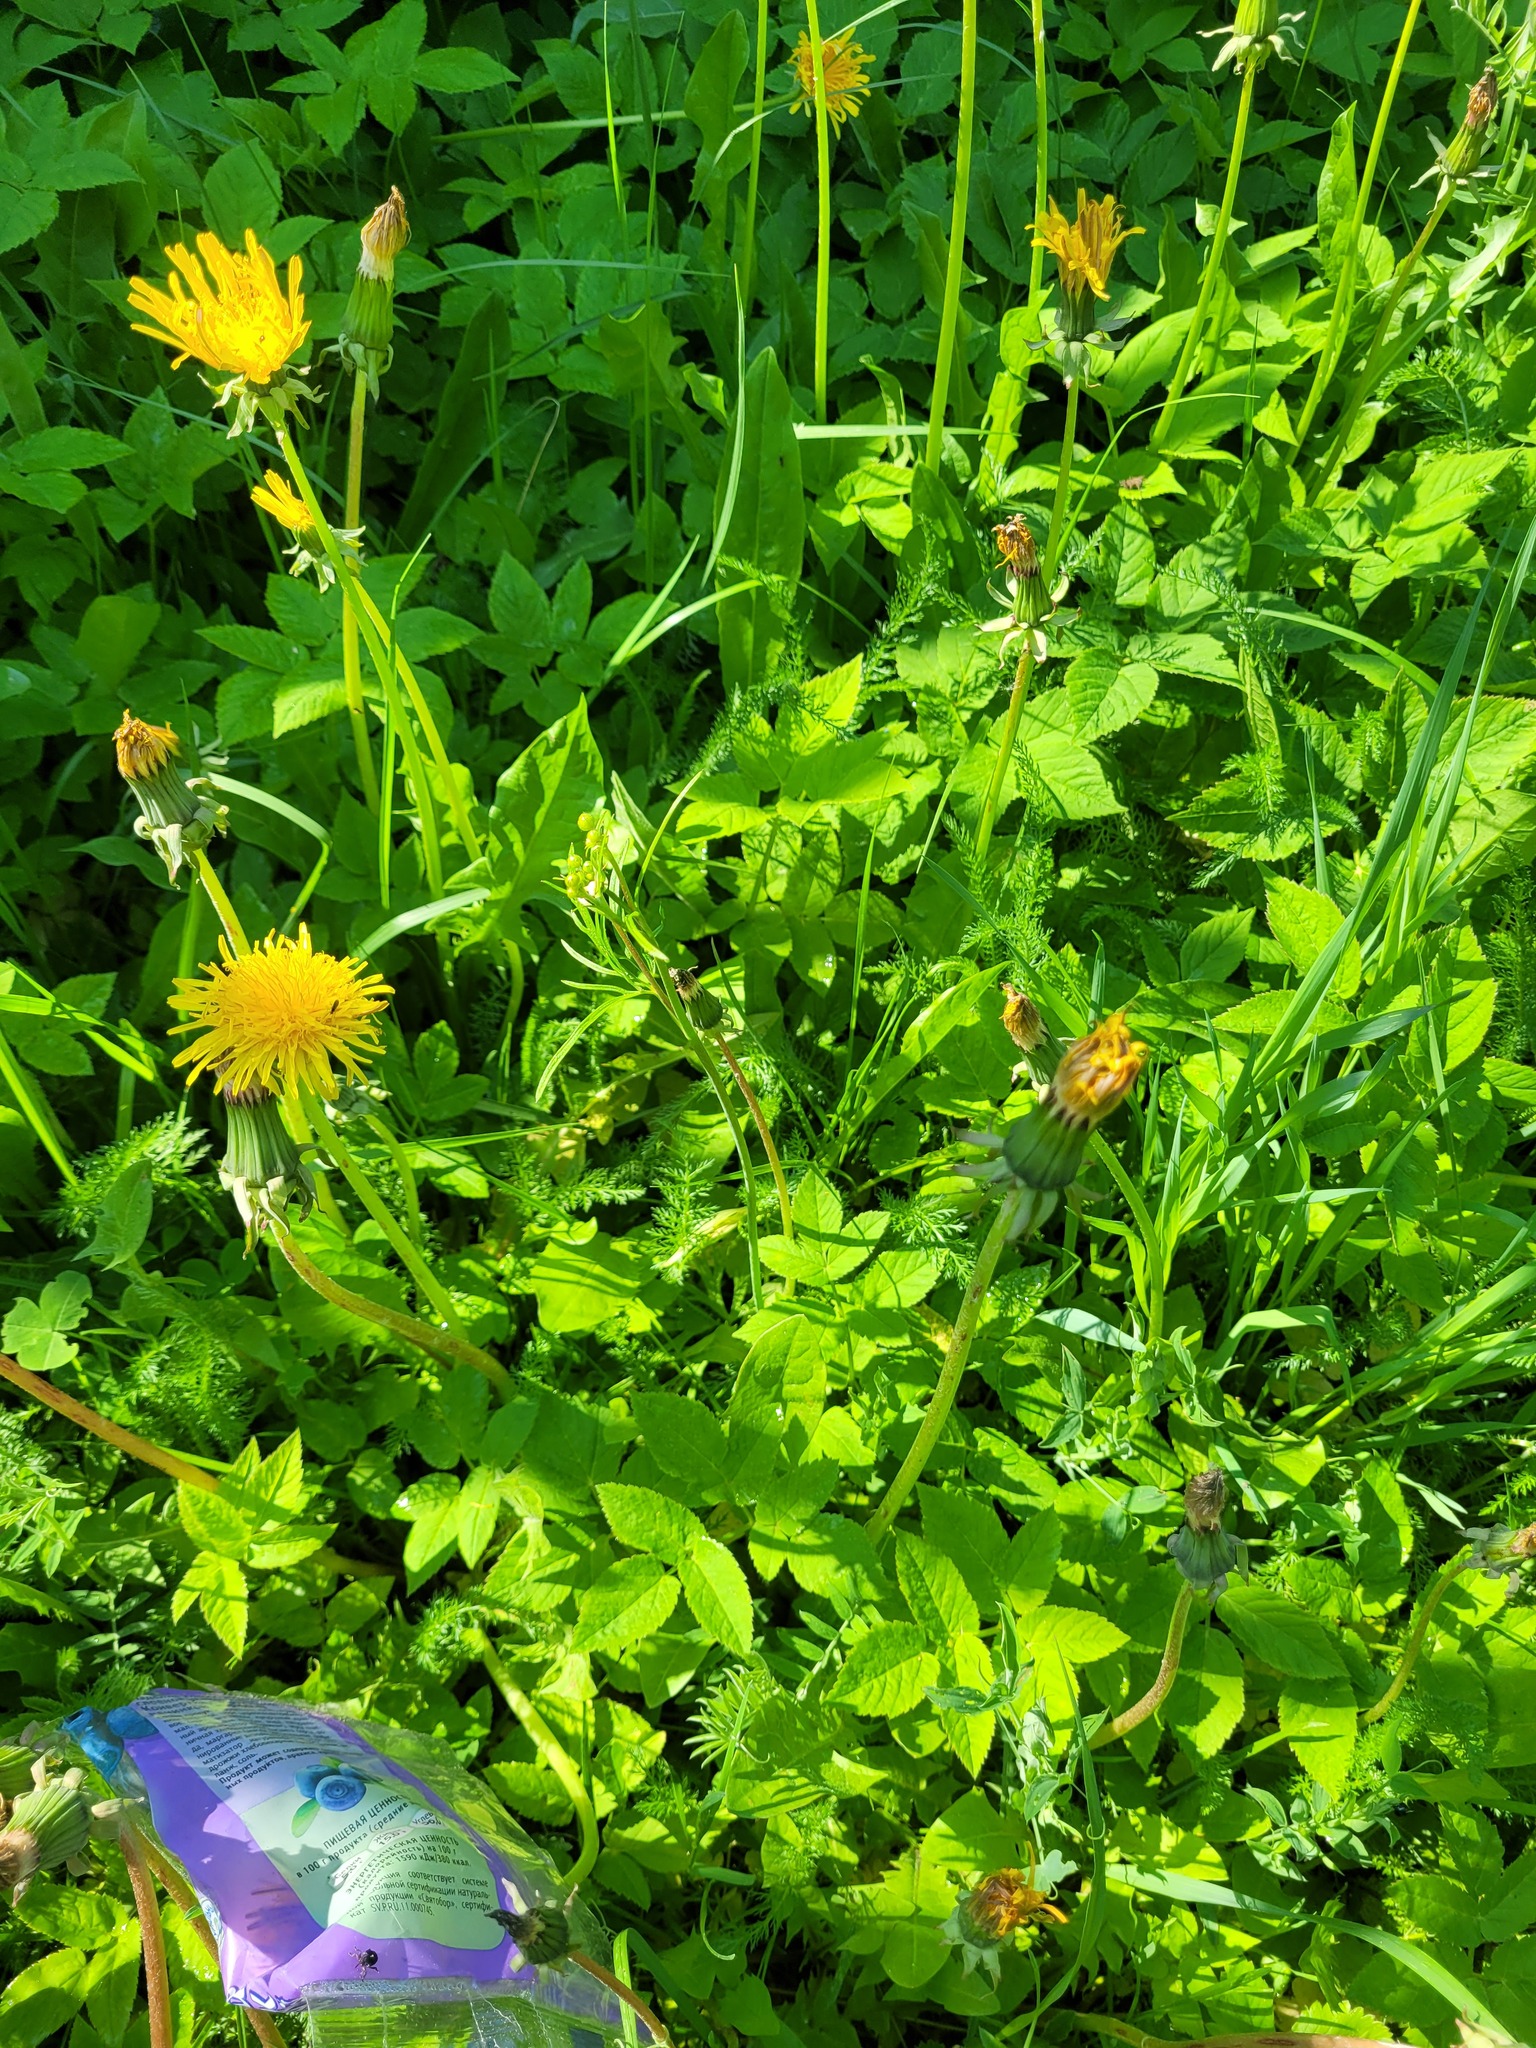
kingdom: Plantae
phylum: Tracheophyta
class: Magnoliopsida
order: Ranunculales
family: Ranunculaceae
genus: Ranunculus
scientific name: Ranunculus acris
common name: Meadow buttercup
